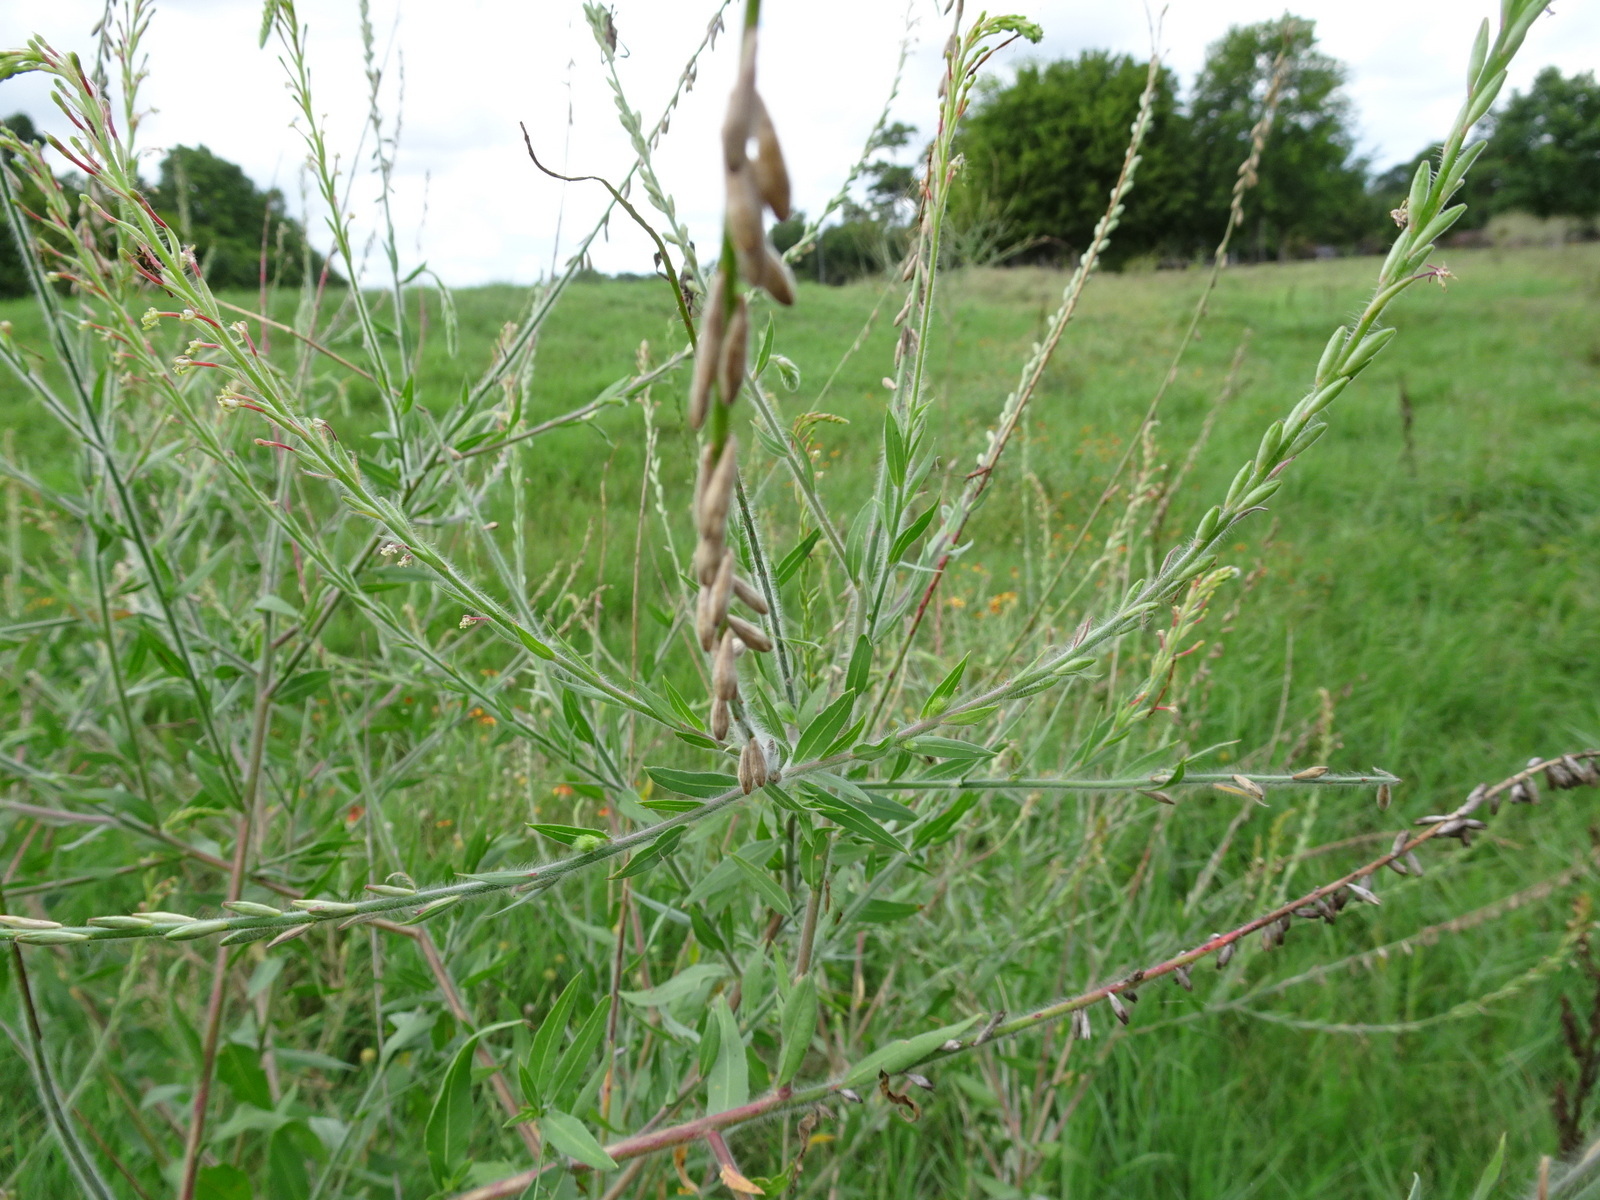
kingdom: Plantae
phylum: Tracheophyta
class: Magnoliopsida
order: Myrtales
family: Onagraceae
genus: Oenothera
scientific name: Oenothera curtiflora
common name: Velvetweed
